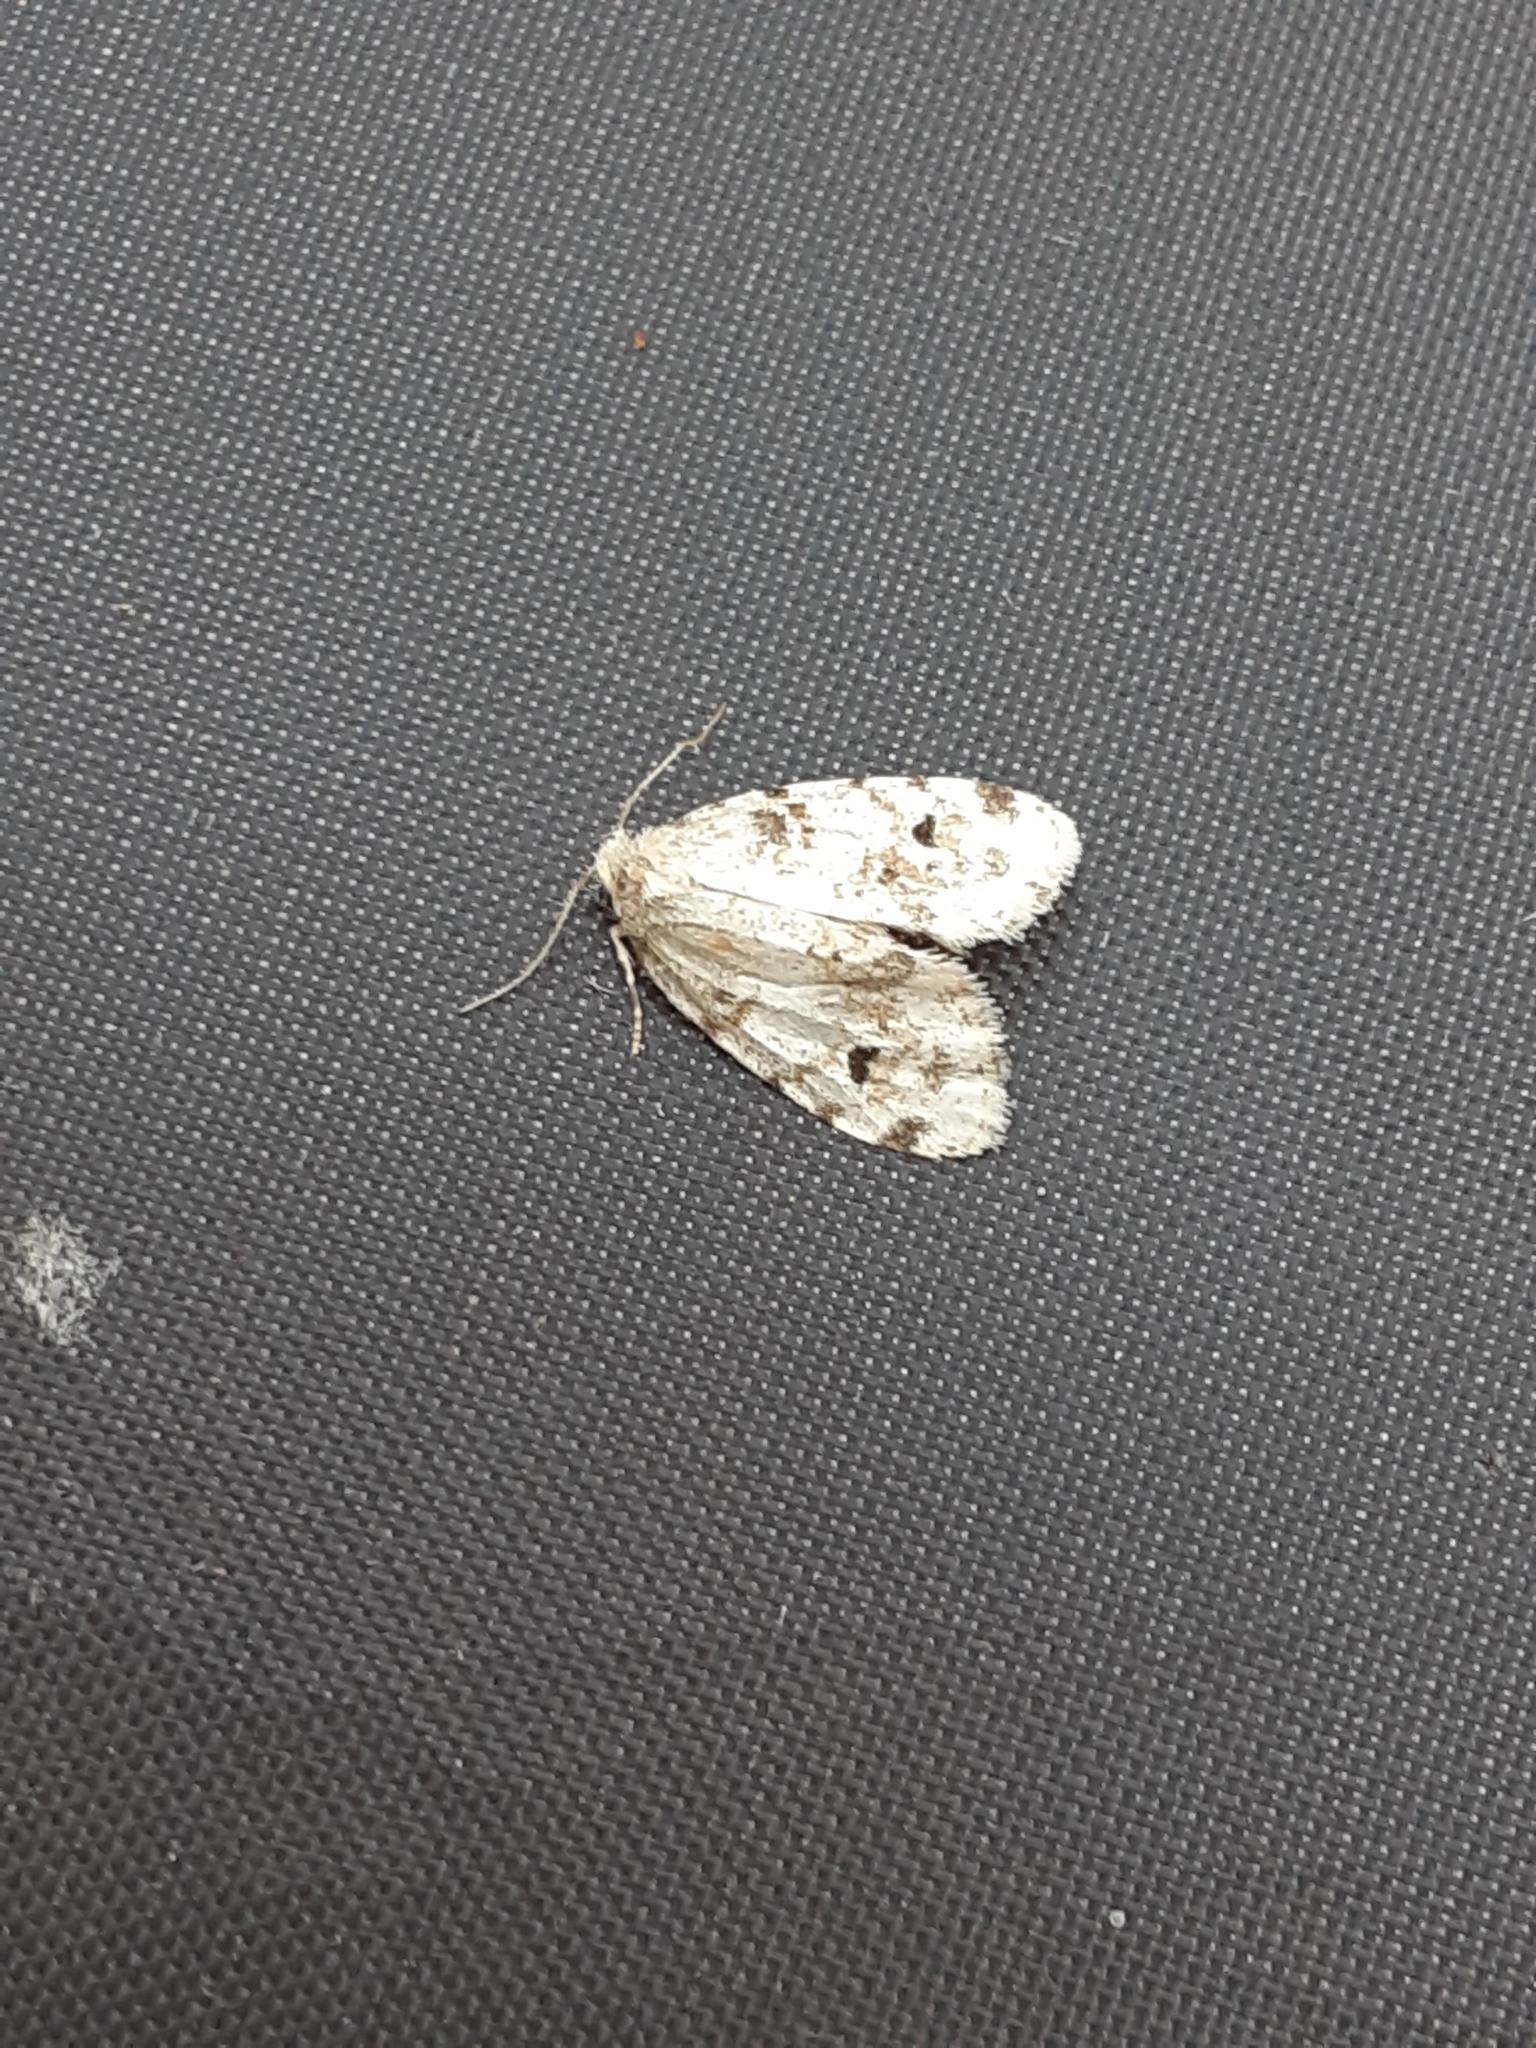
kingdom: Animalia
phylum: Arthropoda
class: Insecta
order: Lepidoptera
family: Erebidae
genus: Clemensia
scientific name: Clemensia ochreata
